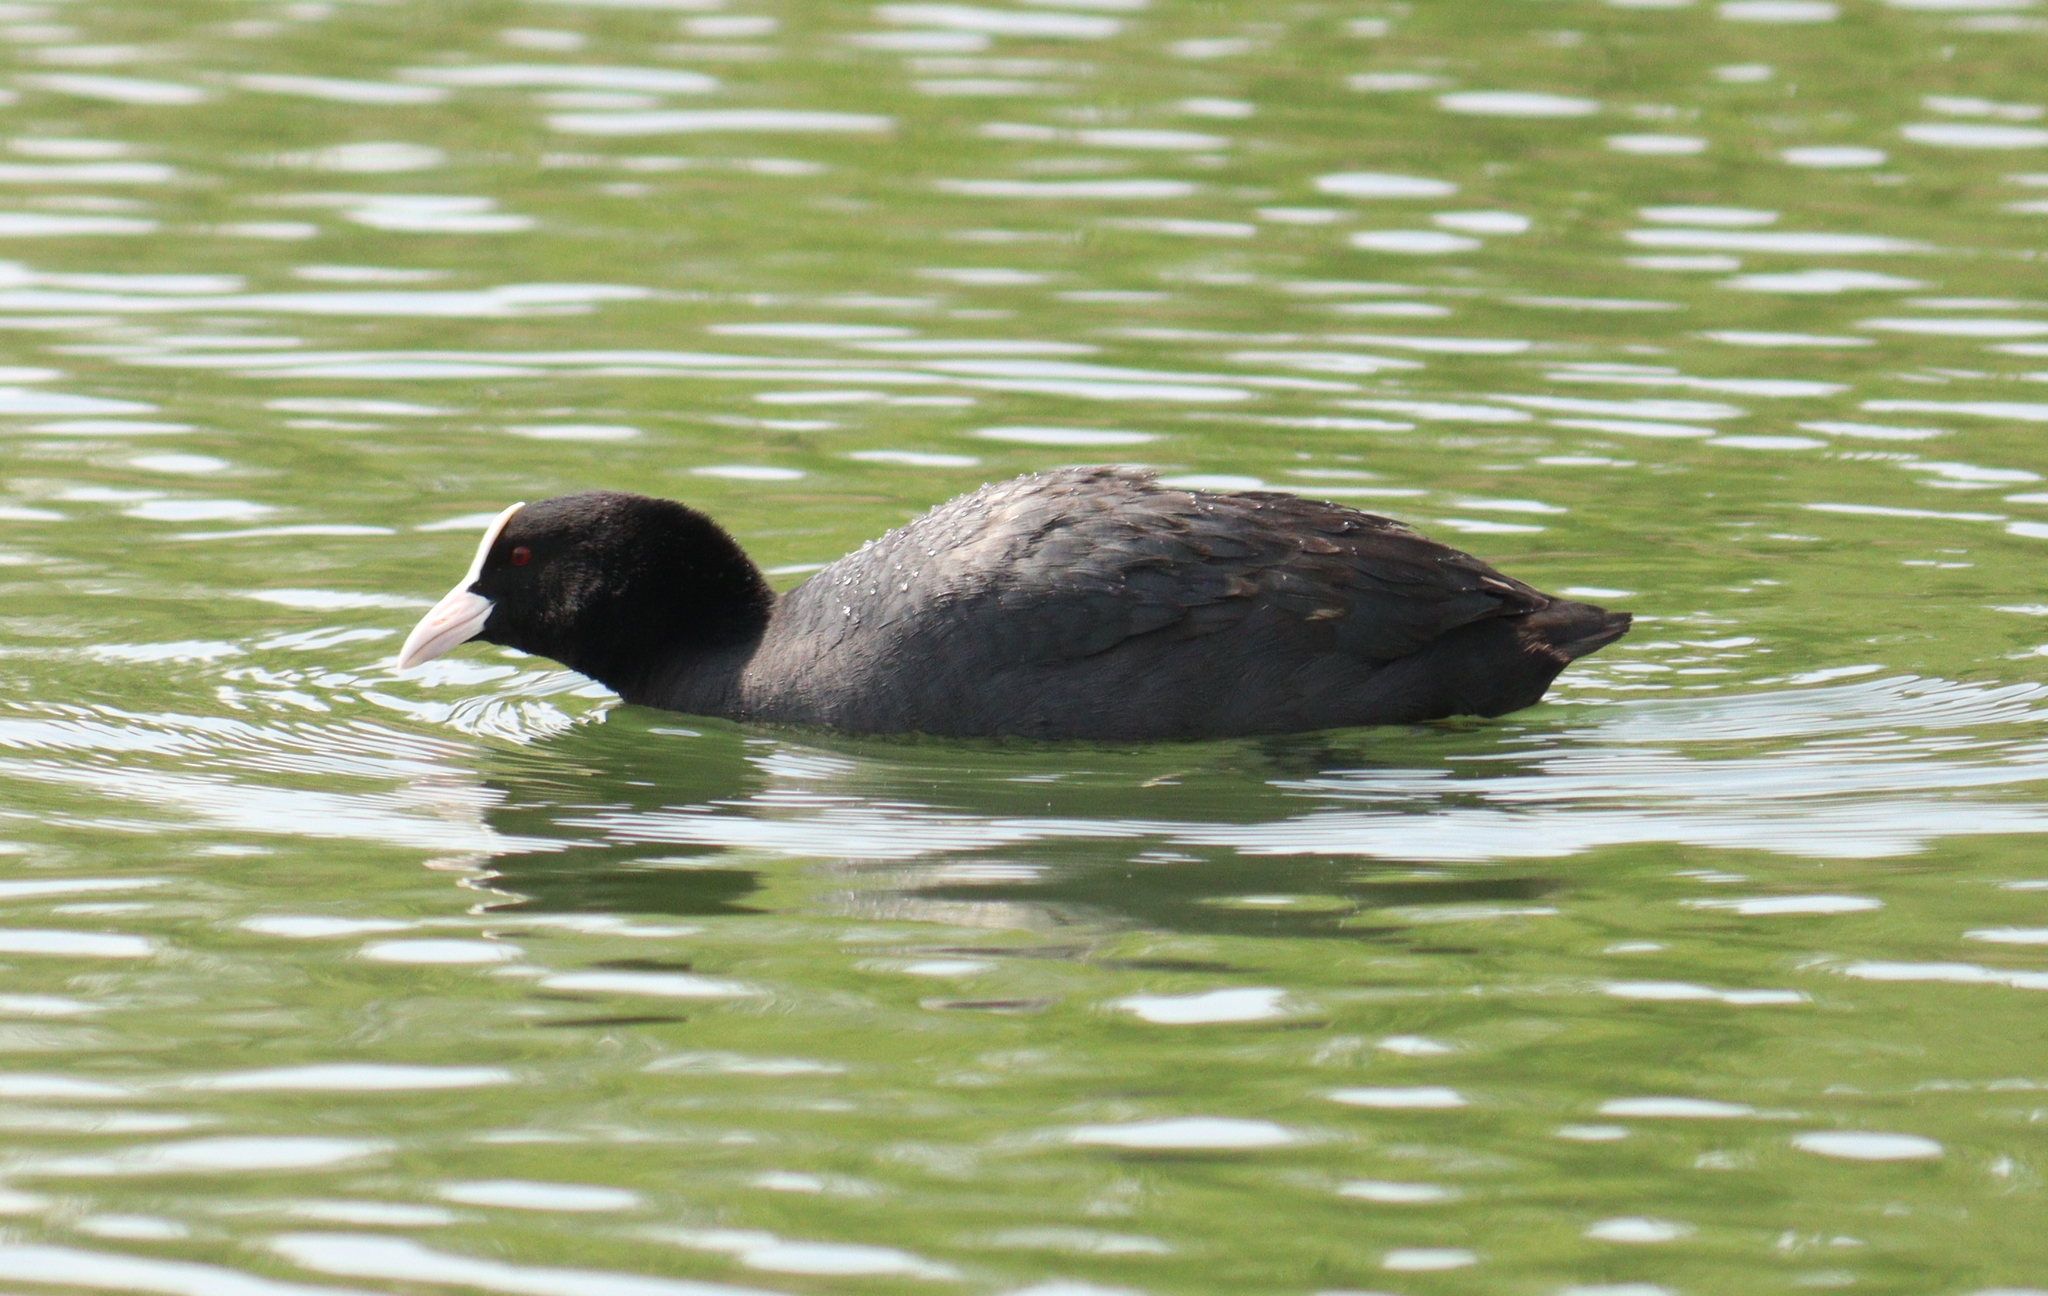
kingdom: Animalia
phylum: Chordata
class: Aves
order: Gruiformes
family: Rallidae
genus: Fulica
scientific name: Fulica atra
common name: Eurasian coot
